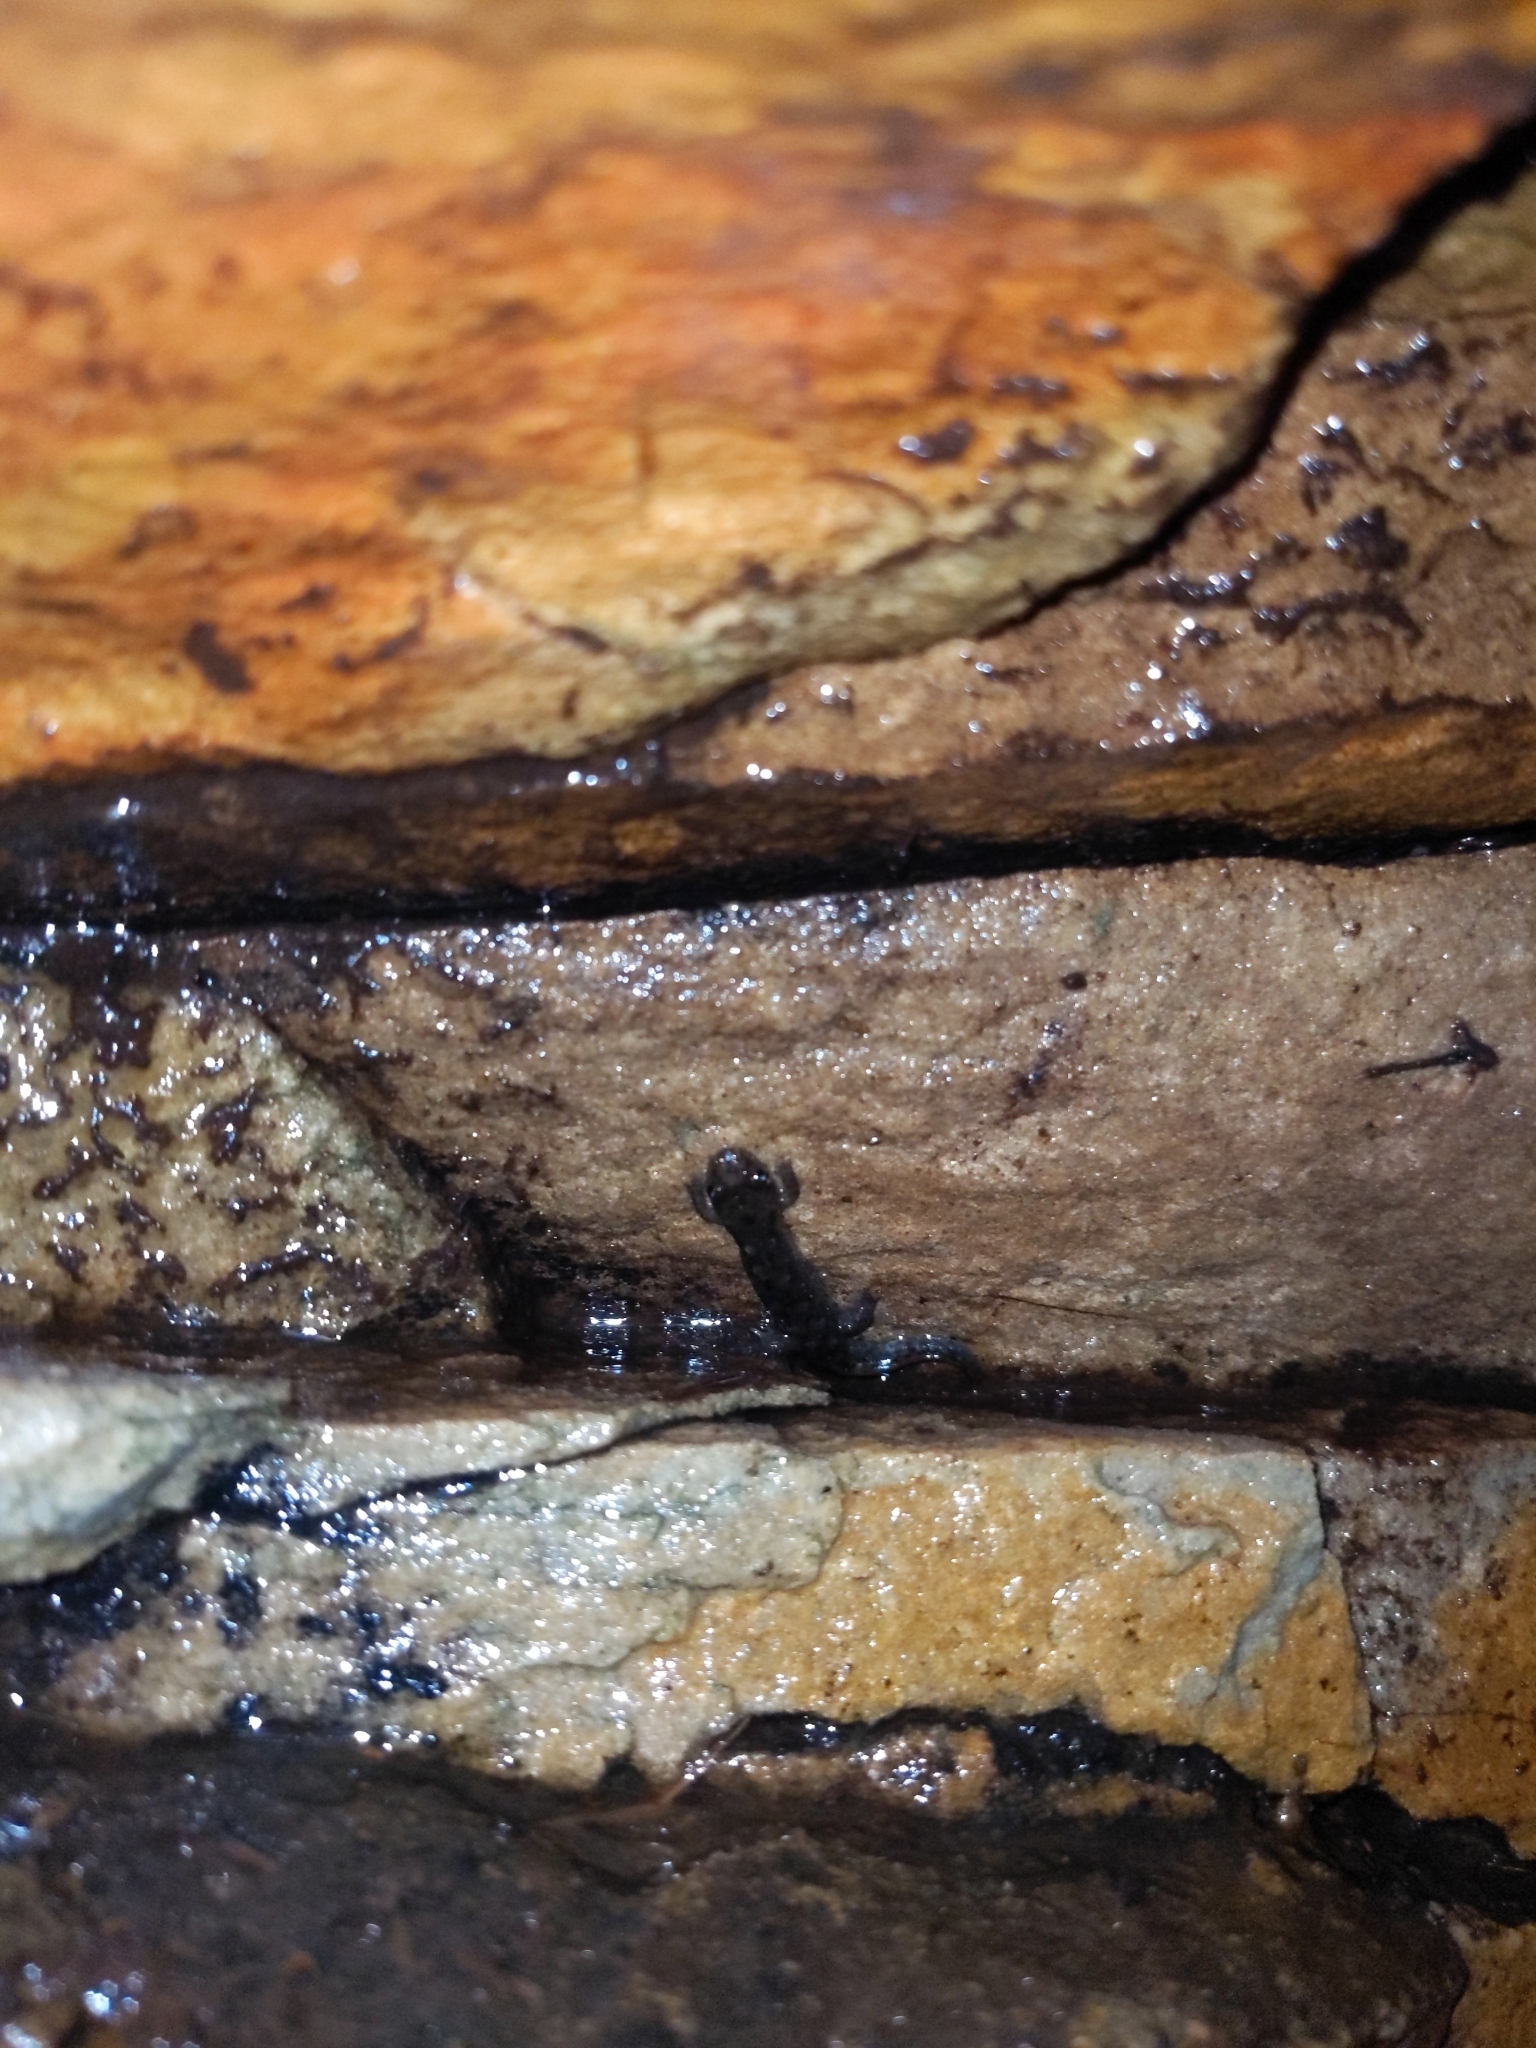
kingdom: Animalia
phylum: Chordata
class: Amphibia
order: Caudata
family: Plethodontidae
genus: Desmognathus
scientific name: Desmognathus monticola
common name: Seal salamander
